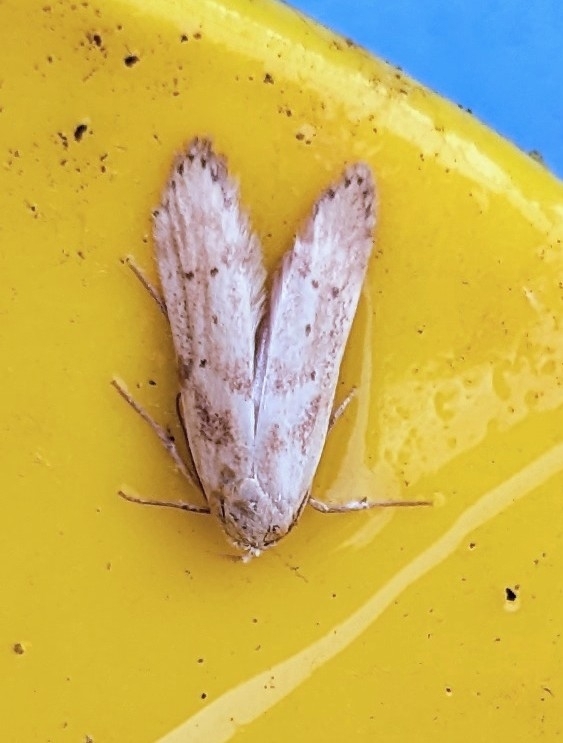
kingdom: Animalia
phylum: Arthropoda
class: Insecta
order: Lepidoptera
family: Blastobasidae
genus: Blastobasis
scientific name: Blastobasis lacticolella
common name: London dowd
